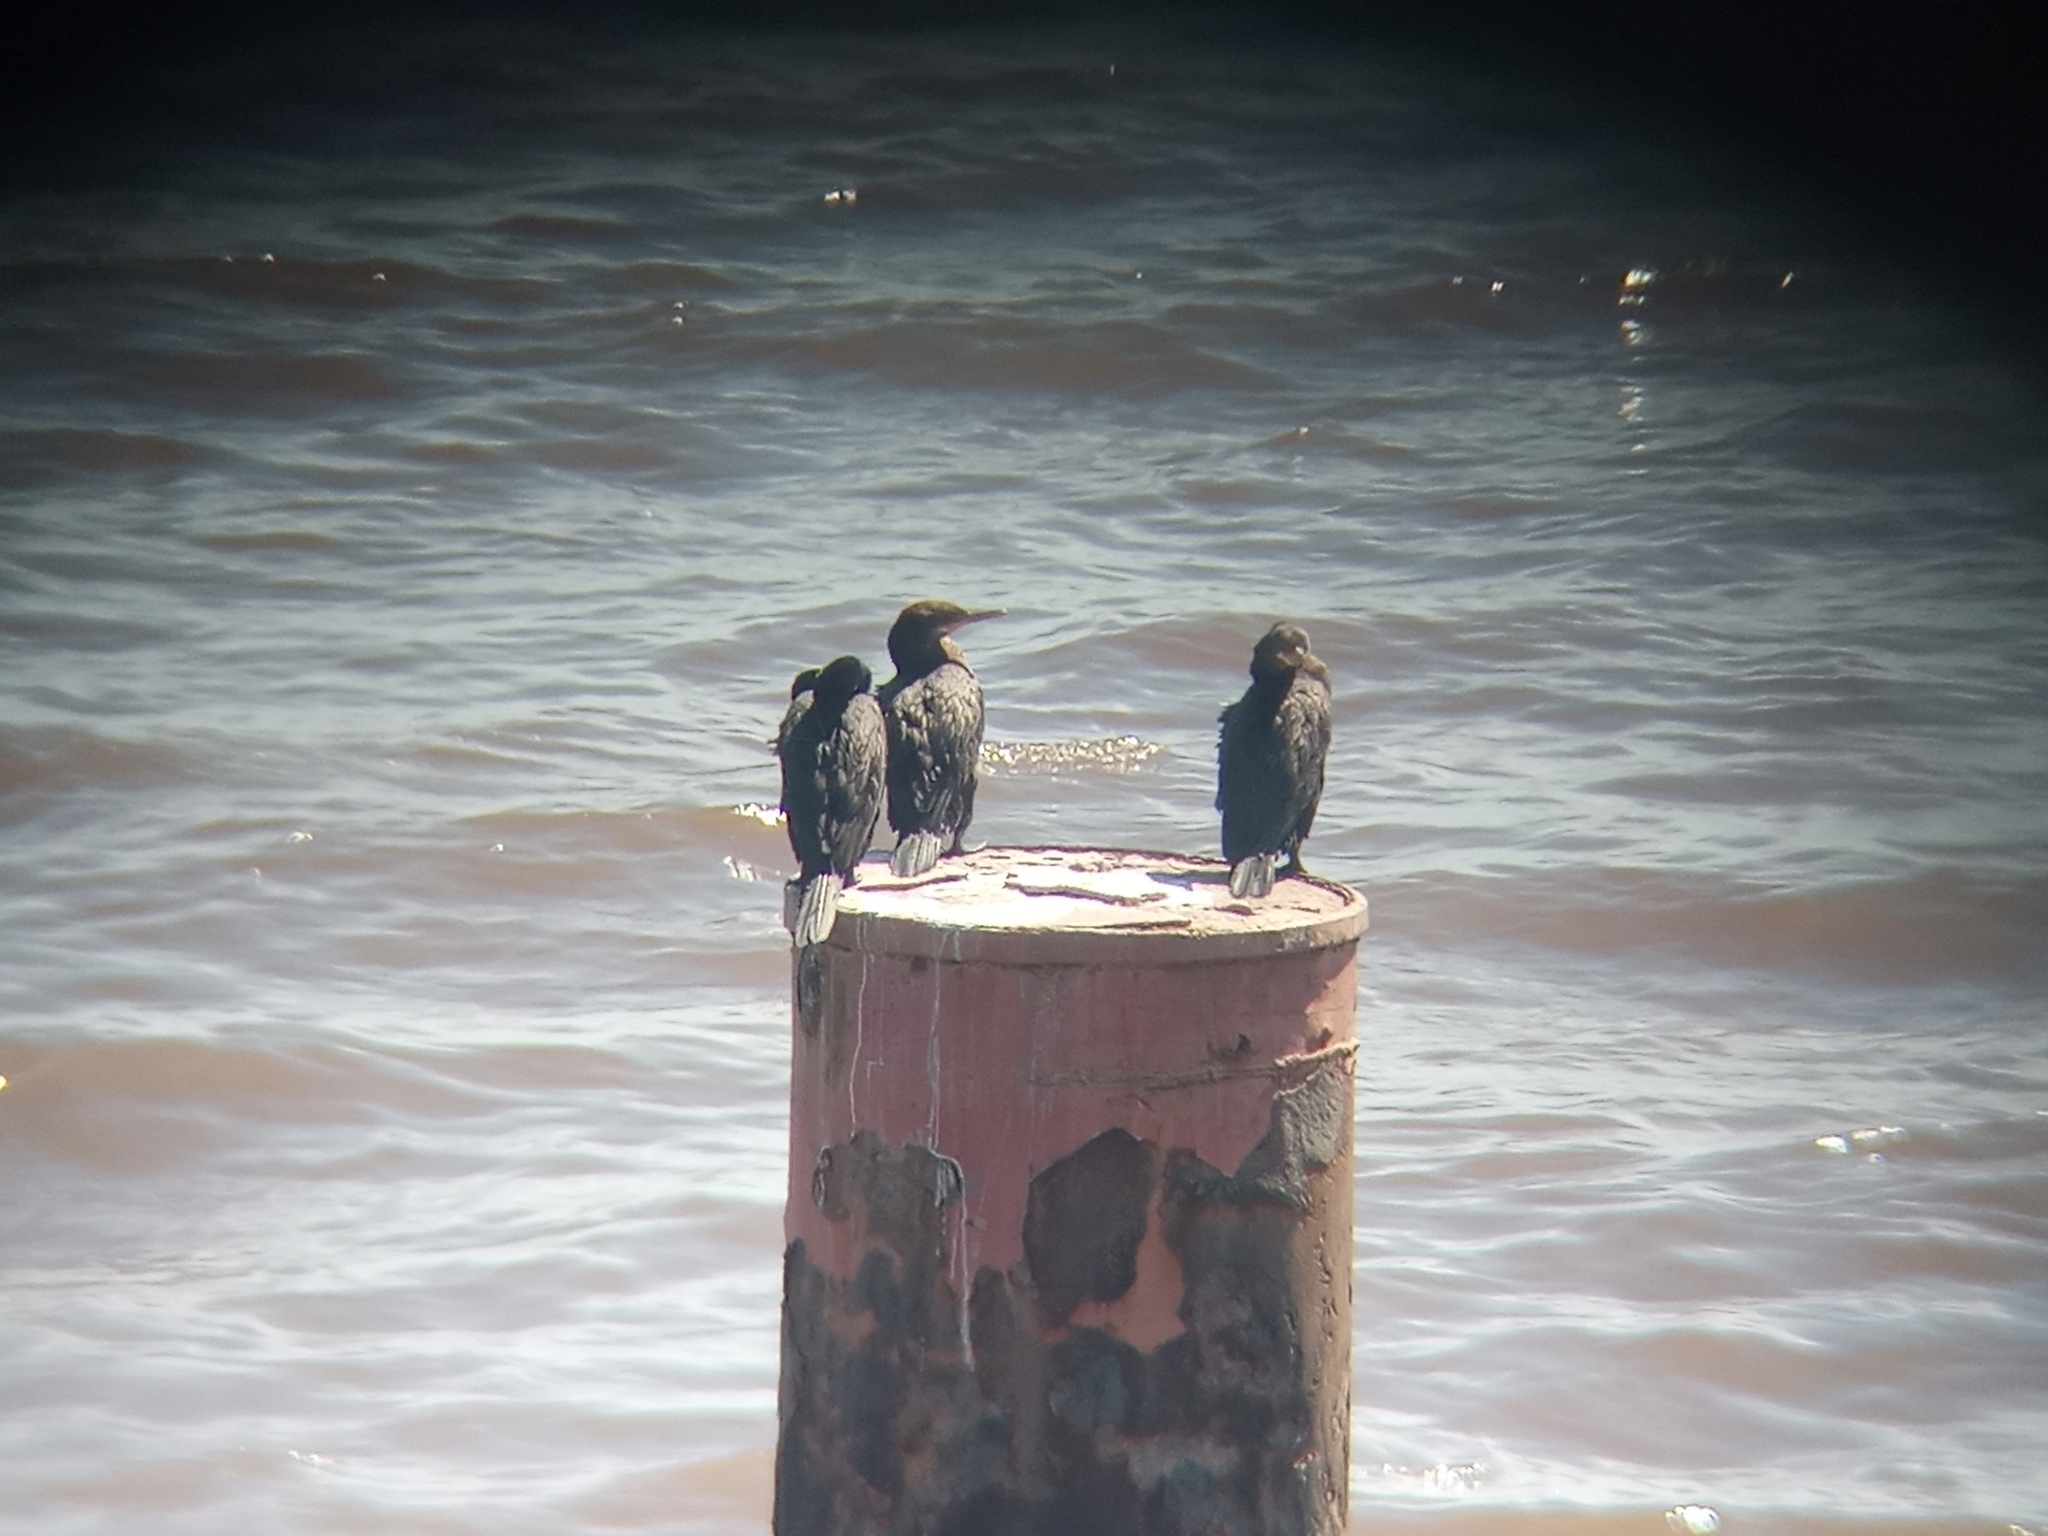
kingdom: Animalia
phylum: Chordata
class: Aves
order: Suliformes
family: Phalacrocoracidae
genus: Phalacrocorax
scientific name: Phalacrocorax brasilianus
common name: Neotropic cormorant
